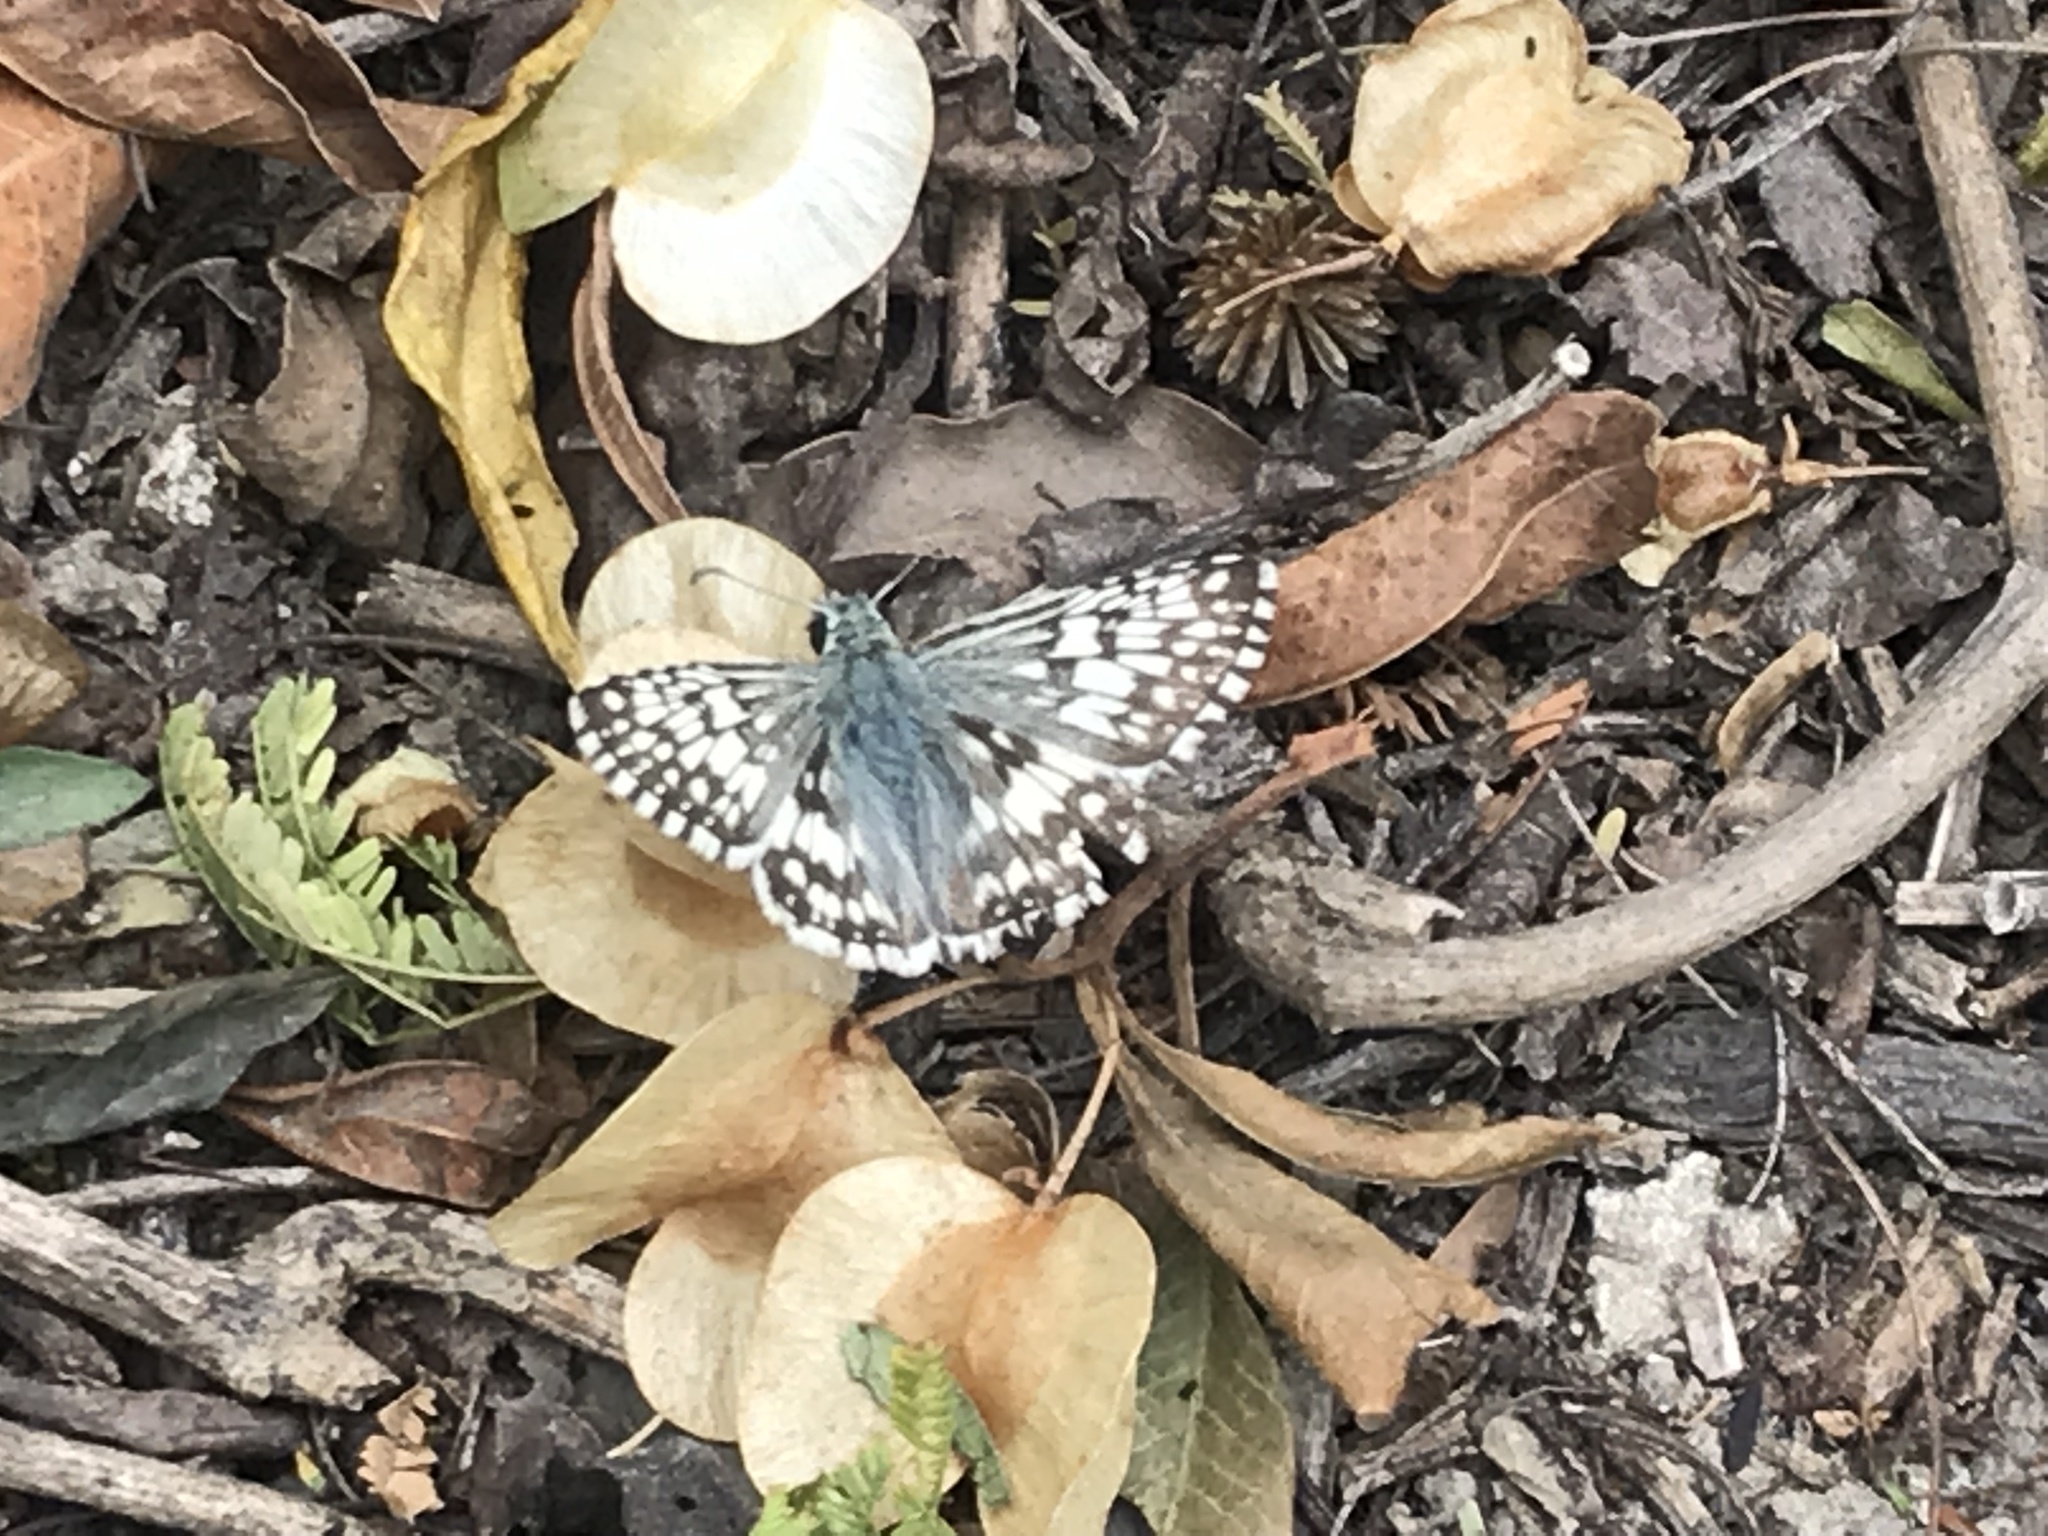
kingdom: Animalia
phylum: Arthropoda
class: Insecta
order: Lepidoptera
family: Hesperiidae
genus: Burnsius
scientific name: Burnsius albezens
